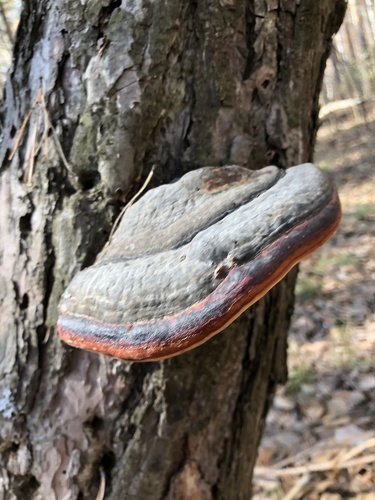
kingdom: Fungi
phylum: Basidiomycota
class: Agaricomycetes
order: Polyporales
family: Fomitopsidaceae
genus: Fomitopsis
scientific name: Fomitopsis pinicola
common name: Red-belted bracket
